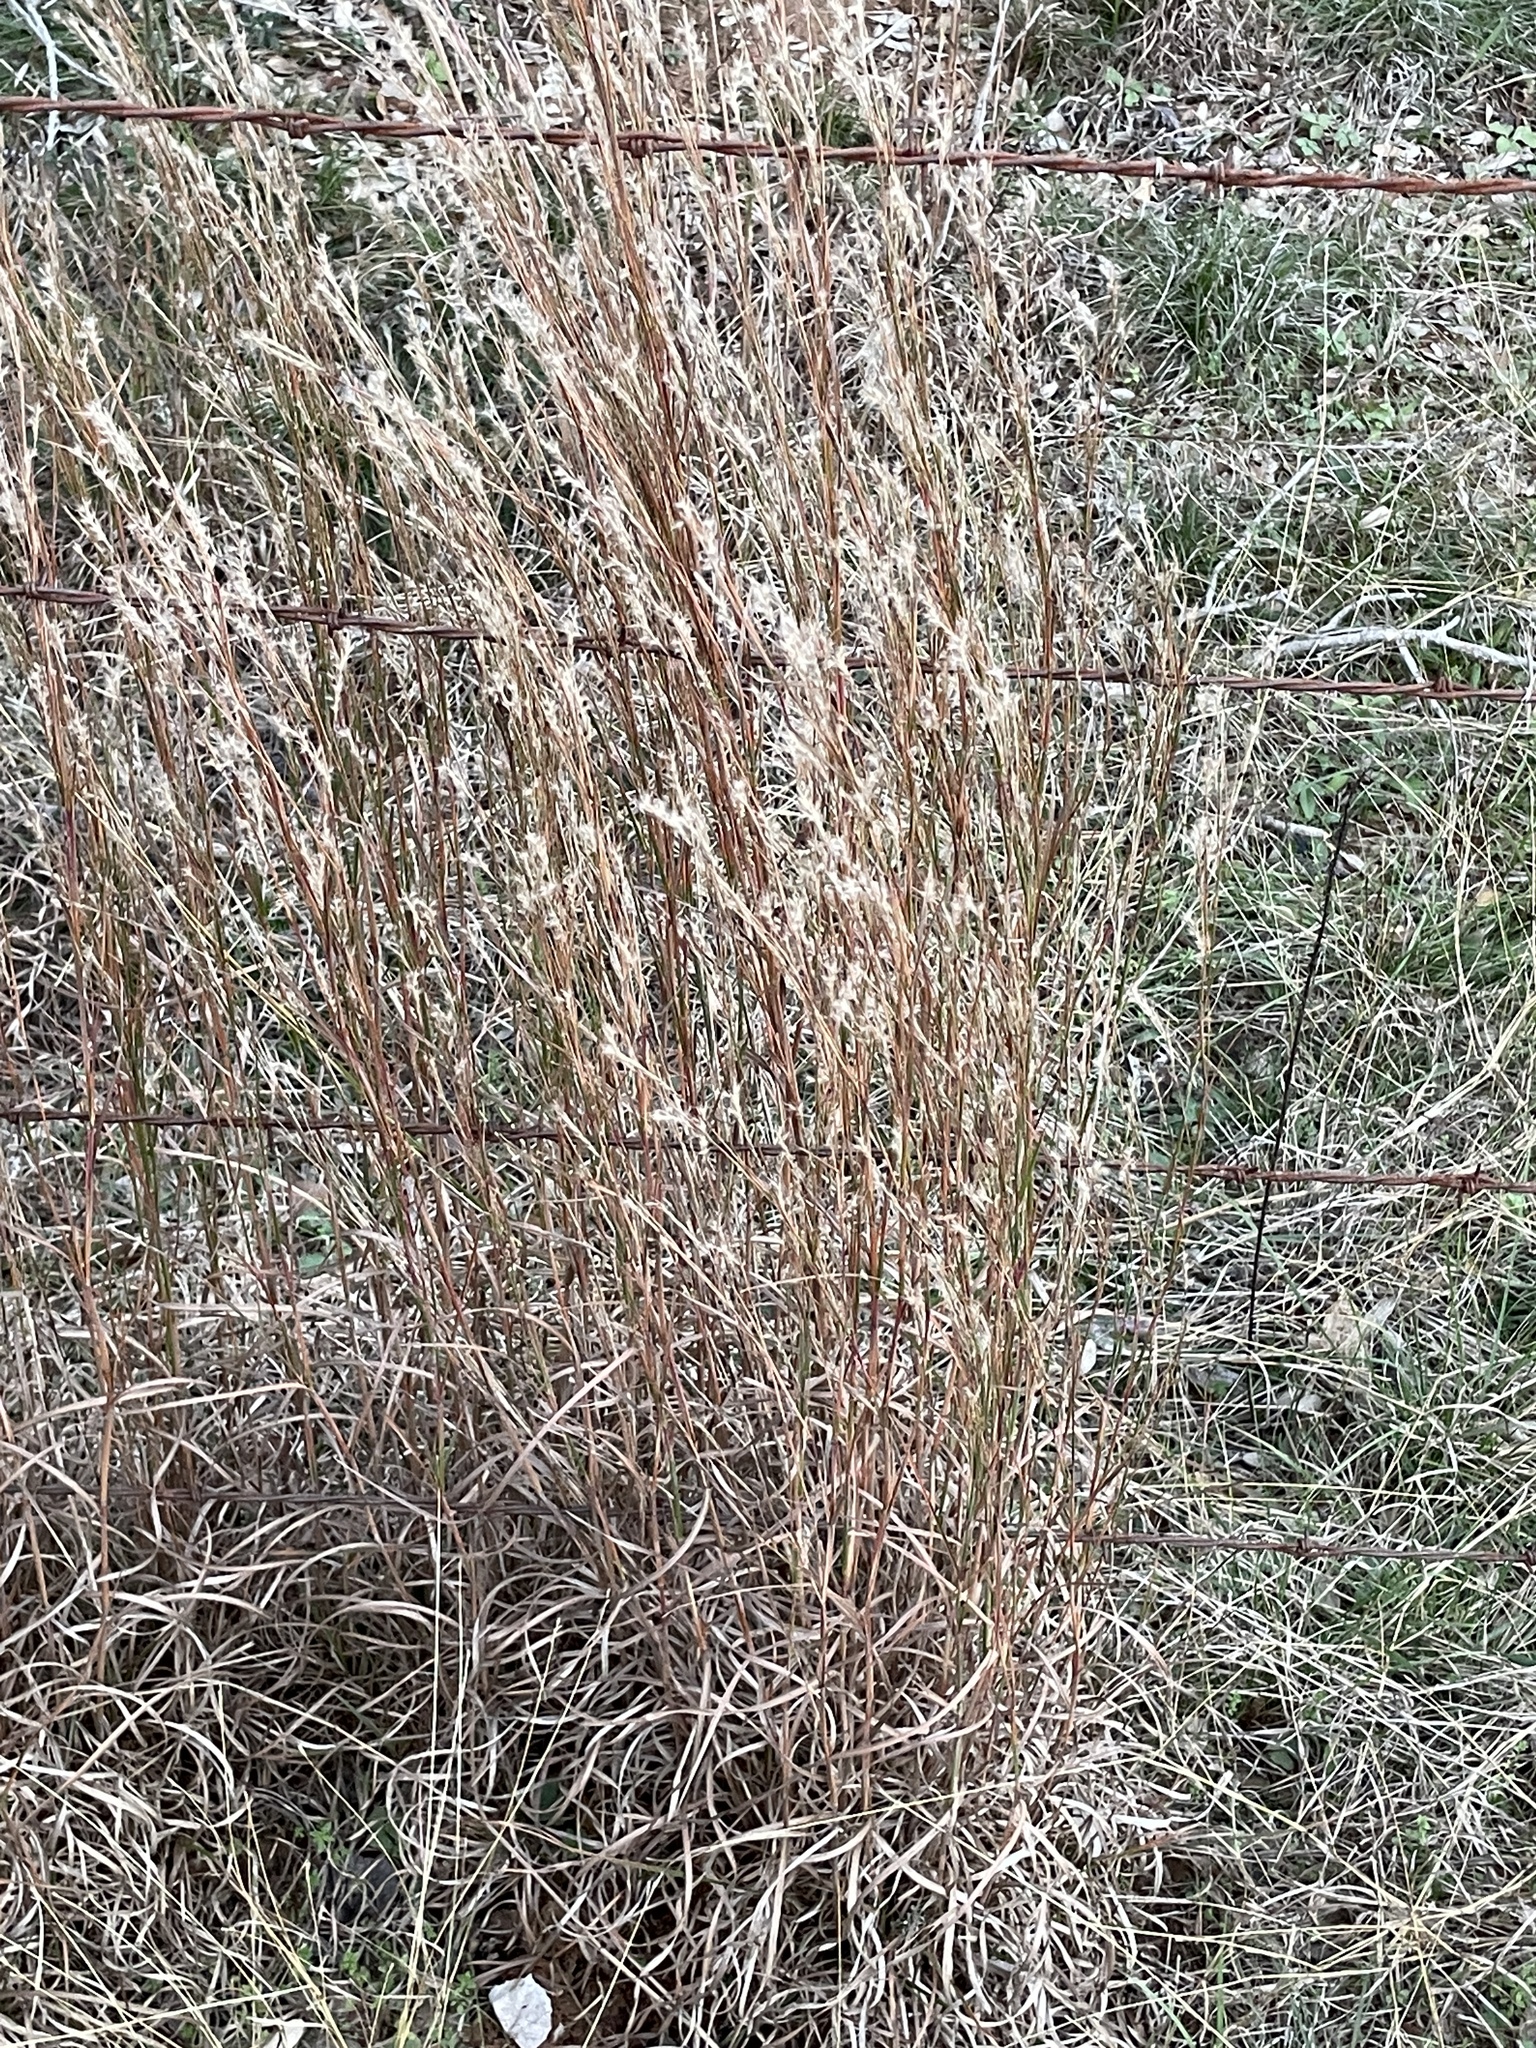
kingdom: Plantae
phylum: Tracheophyta
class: Liliopsida
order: Poales
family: Poaceae
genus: Schizachyrium
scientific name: Schizachyrium scoparium
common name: Little bluestem
